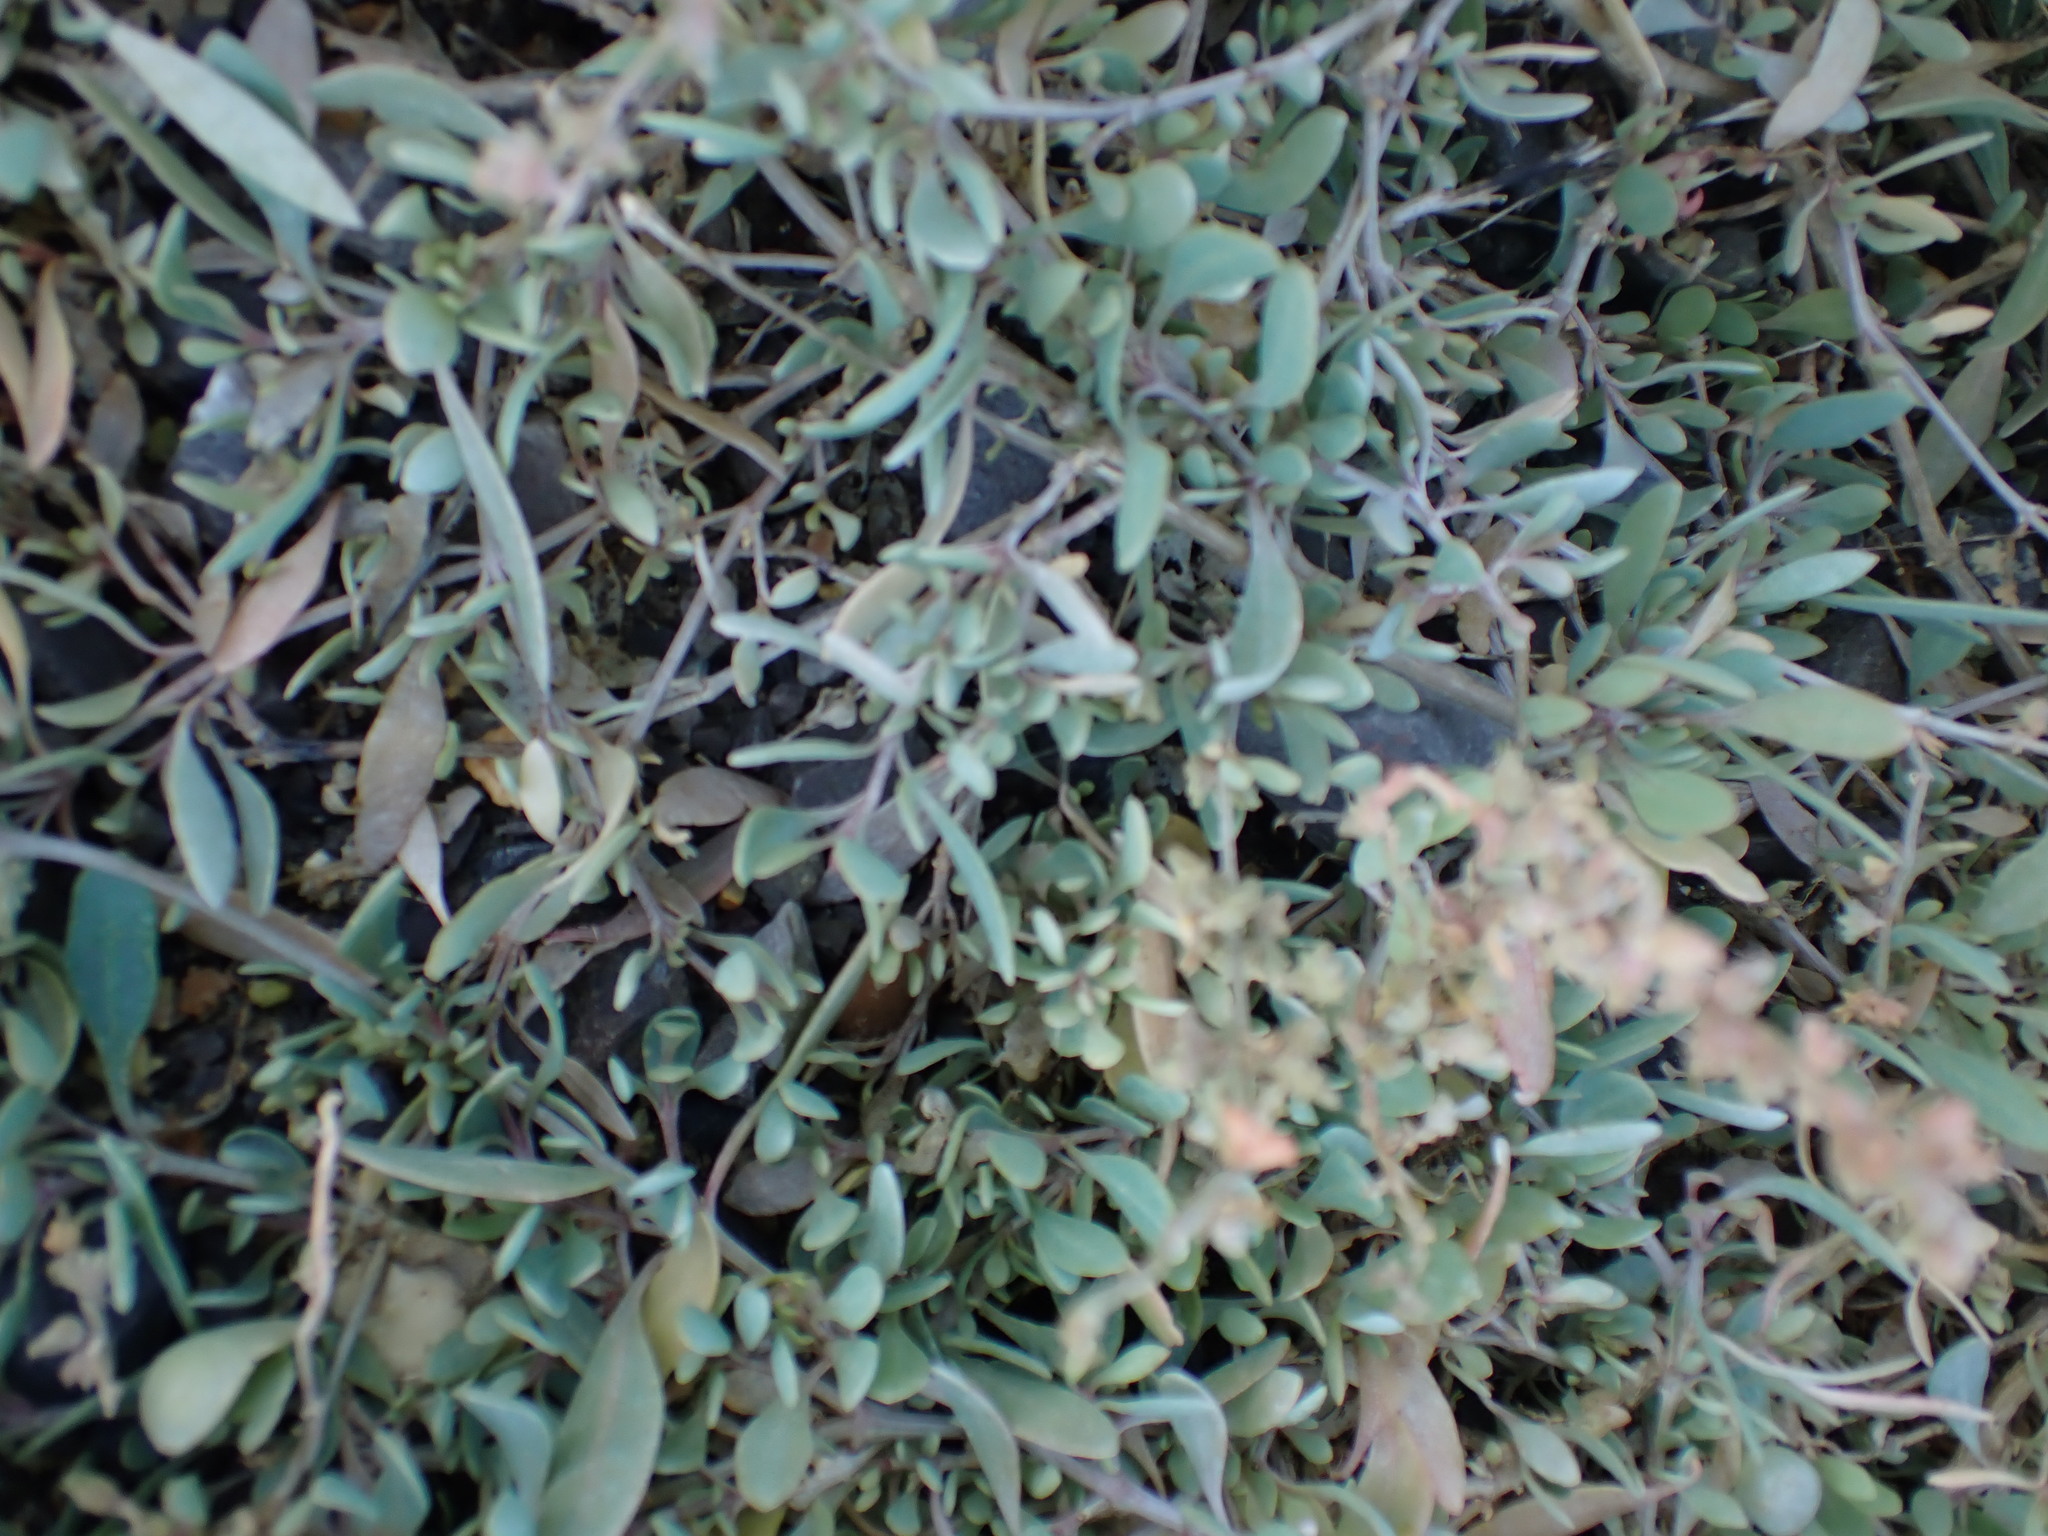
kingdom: Plantae
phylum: Tracheophyta
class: Magnoliopsida
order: Caryophyllales
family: Amaranthaceae
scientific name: Amaranthaceae
